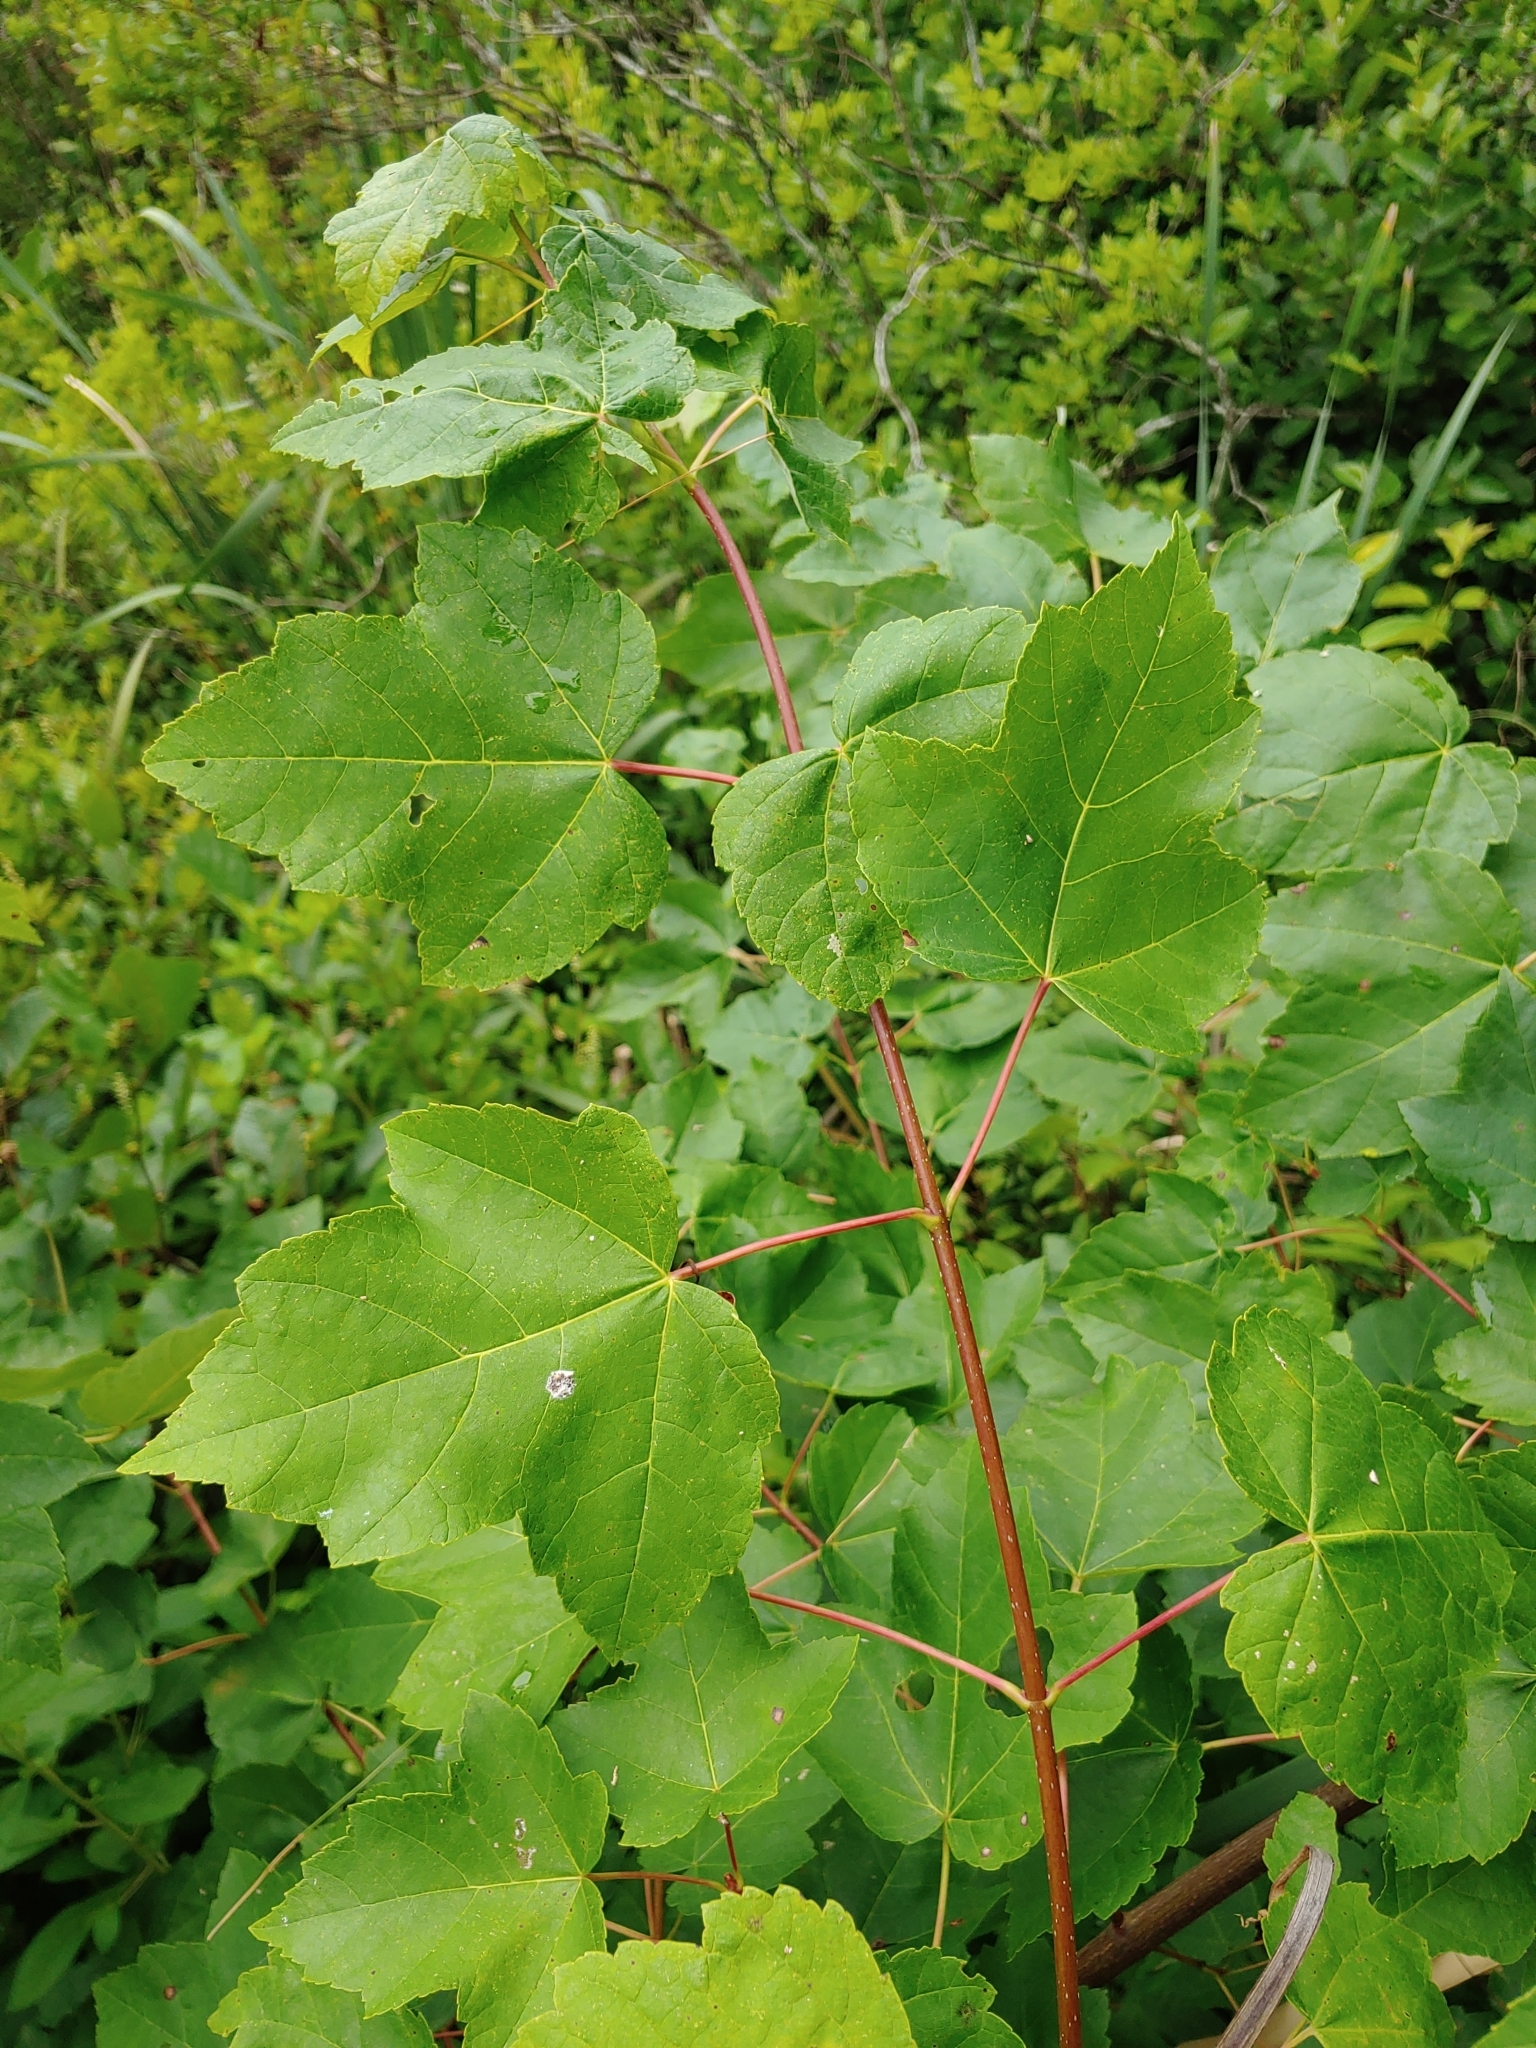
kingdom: Plantae
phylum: Tracheophyta
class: Magnoliopsida
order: Sapindales
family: Sapindaceae
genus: Acer
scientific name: Acer rubrum
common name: Red maple
